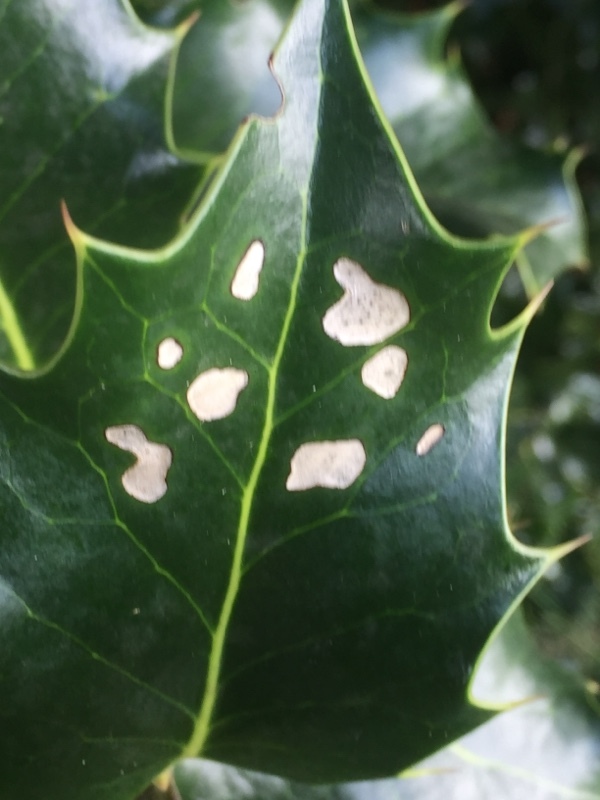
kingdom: Plantae
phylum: Tracheophyta
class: Magnoliopsida
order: Aquifoliales
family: Aquifoliaceae
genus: Ilex
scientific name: Ilex aquifolium
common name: English holly
